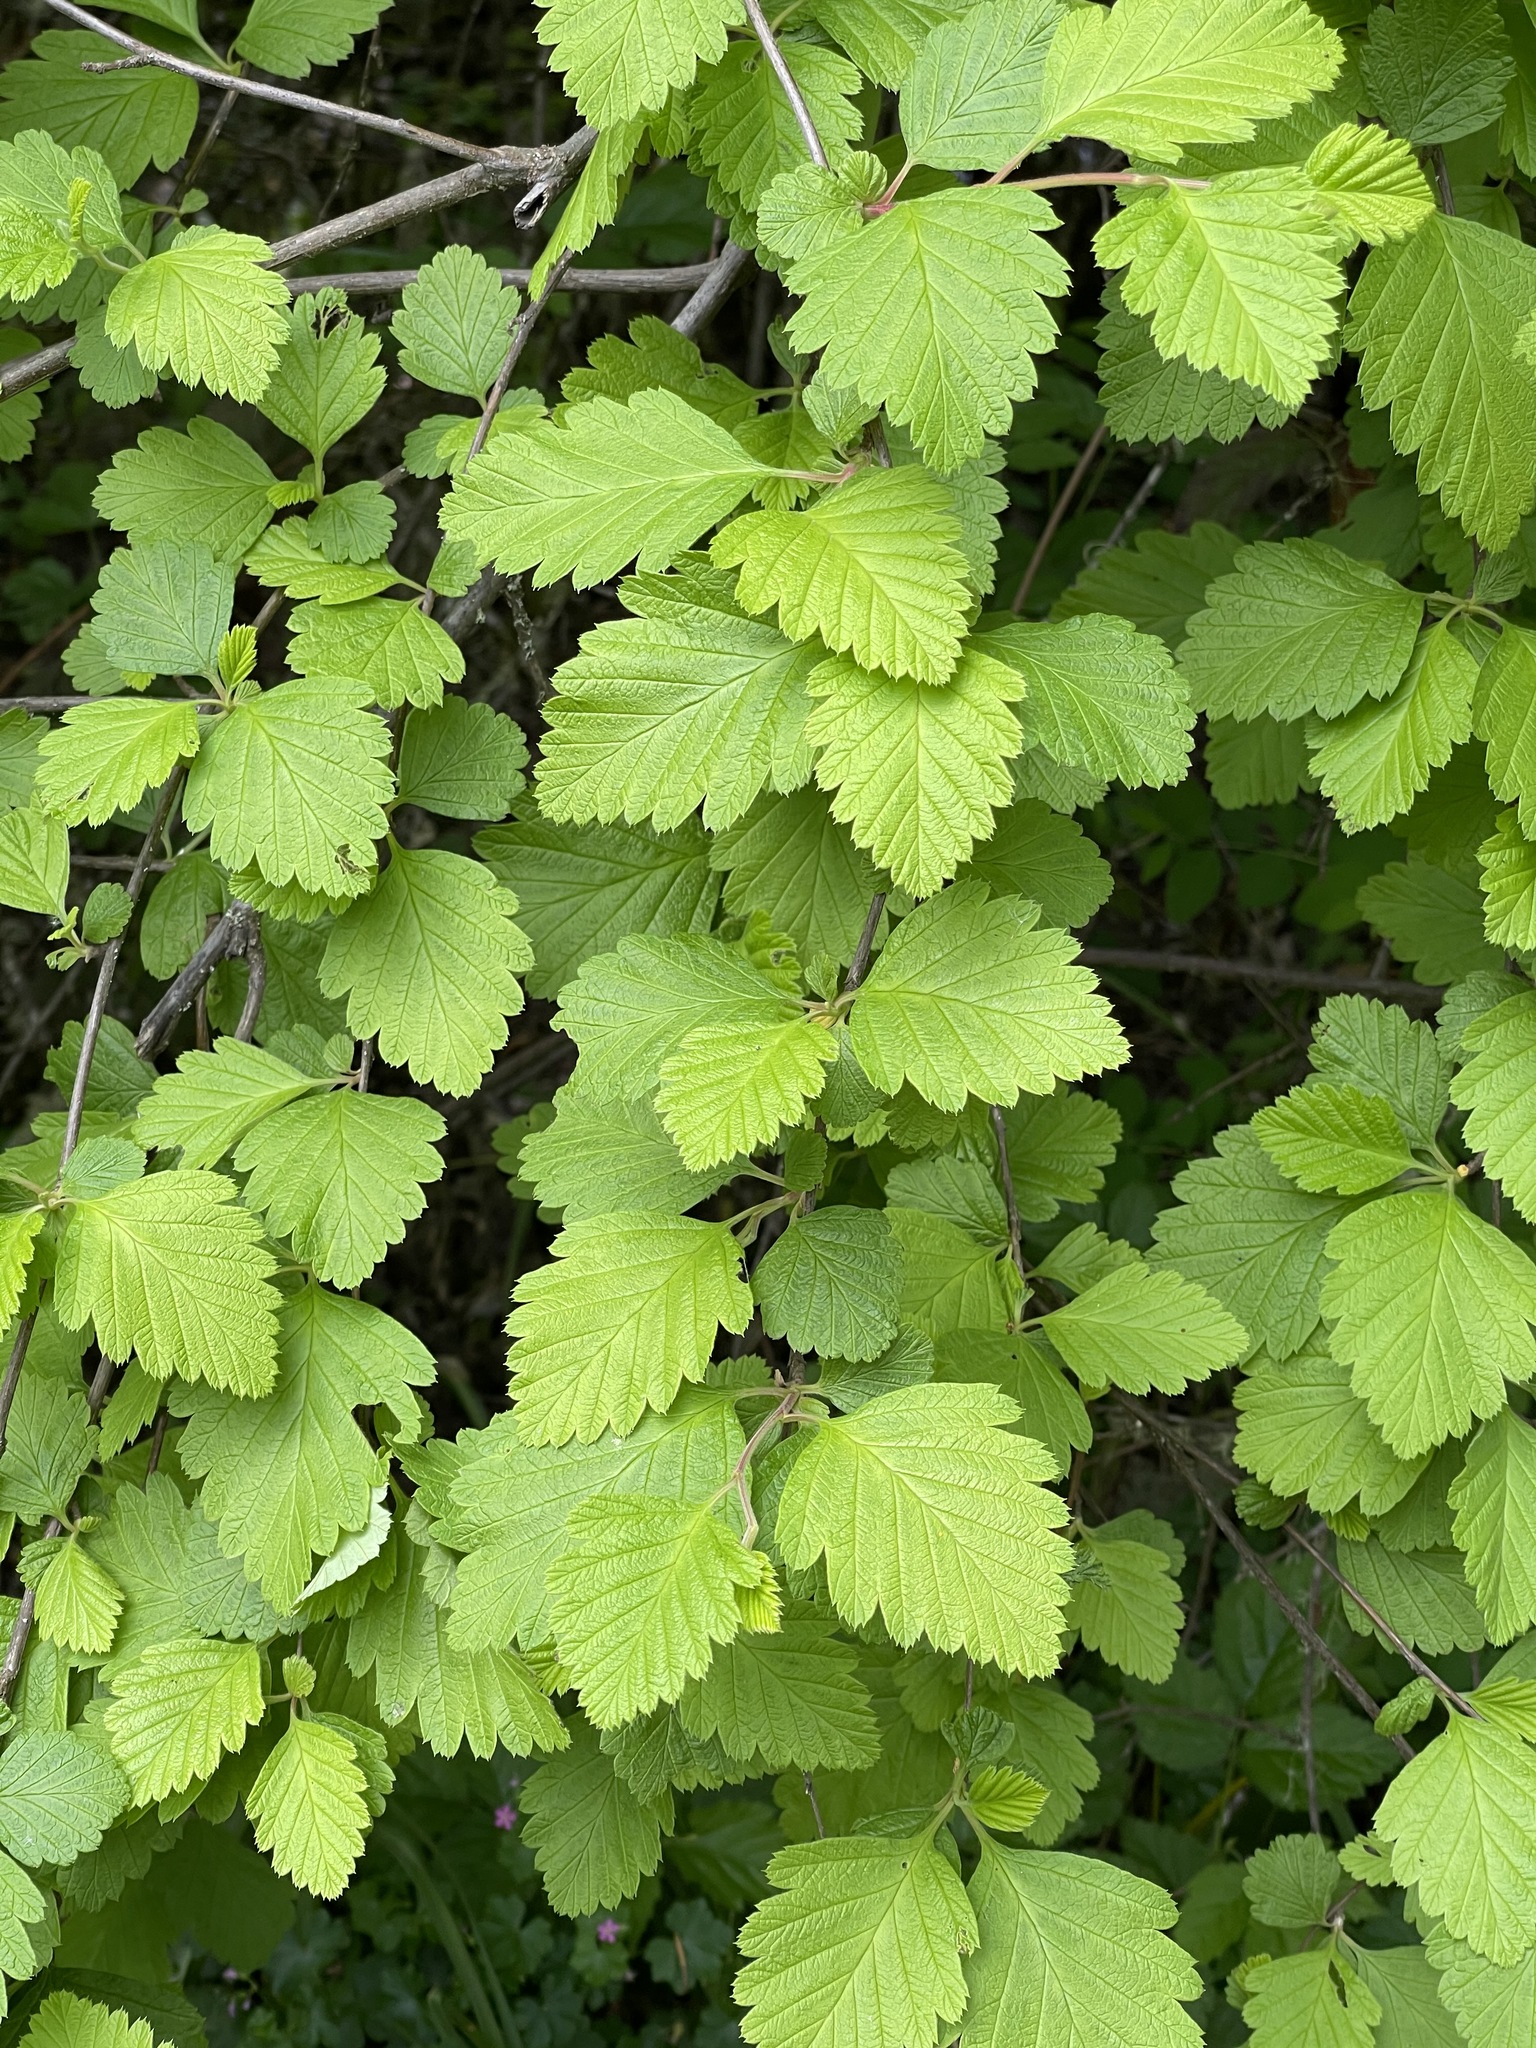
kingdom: Plantae
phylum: Tracheophyta
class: Magnoliopsida
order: Rosales
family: Rosaceae
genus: Holodiscus
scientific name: Holodiscus discolor
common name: Oceanspray
